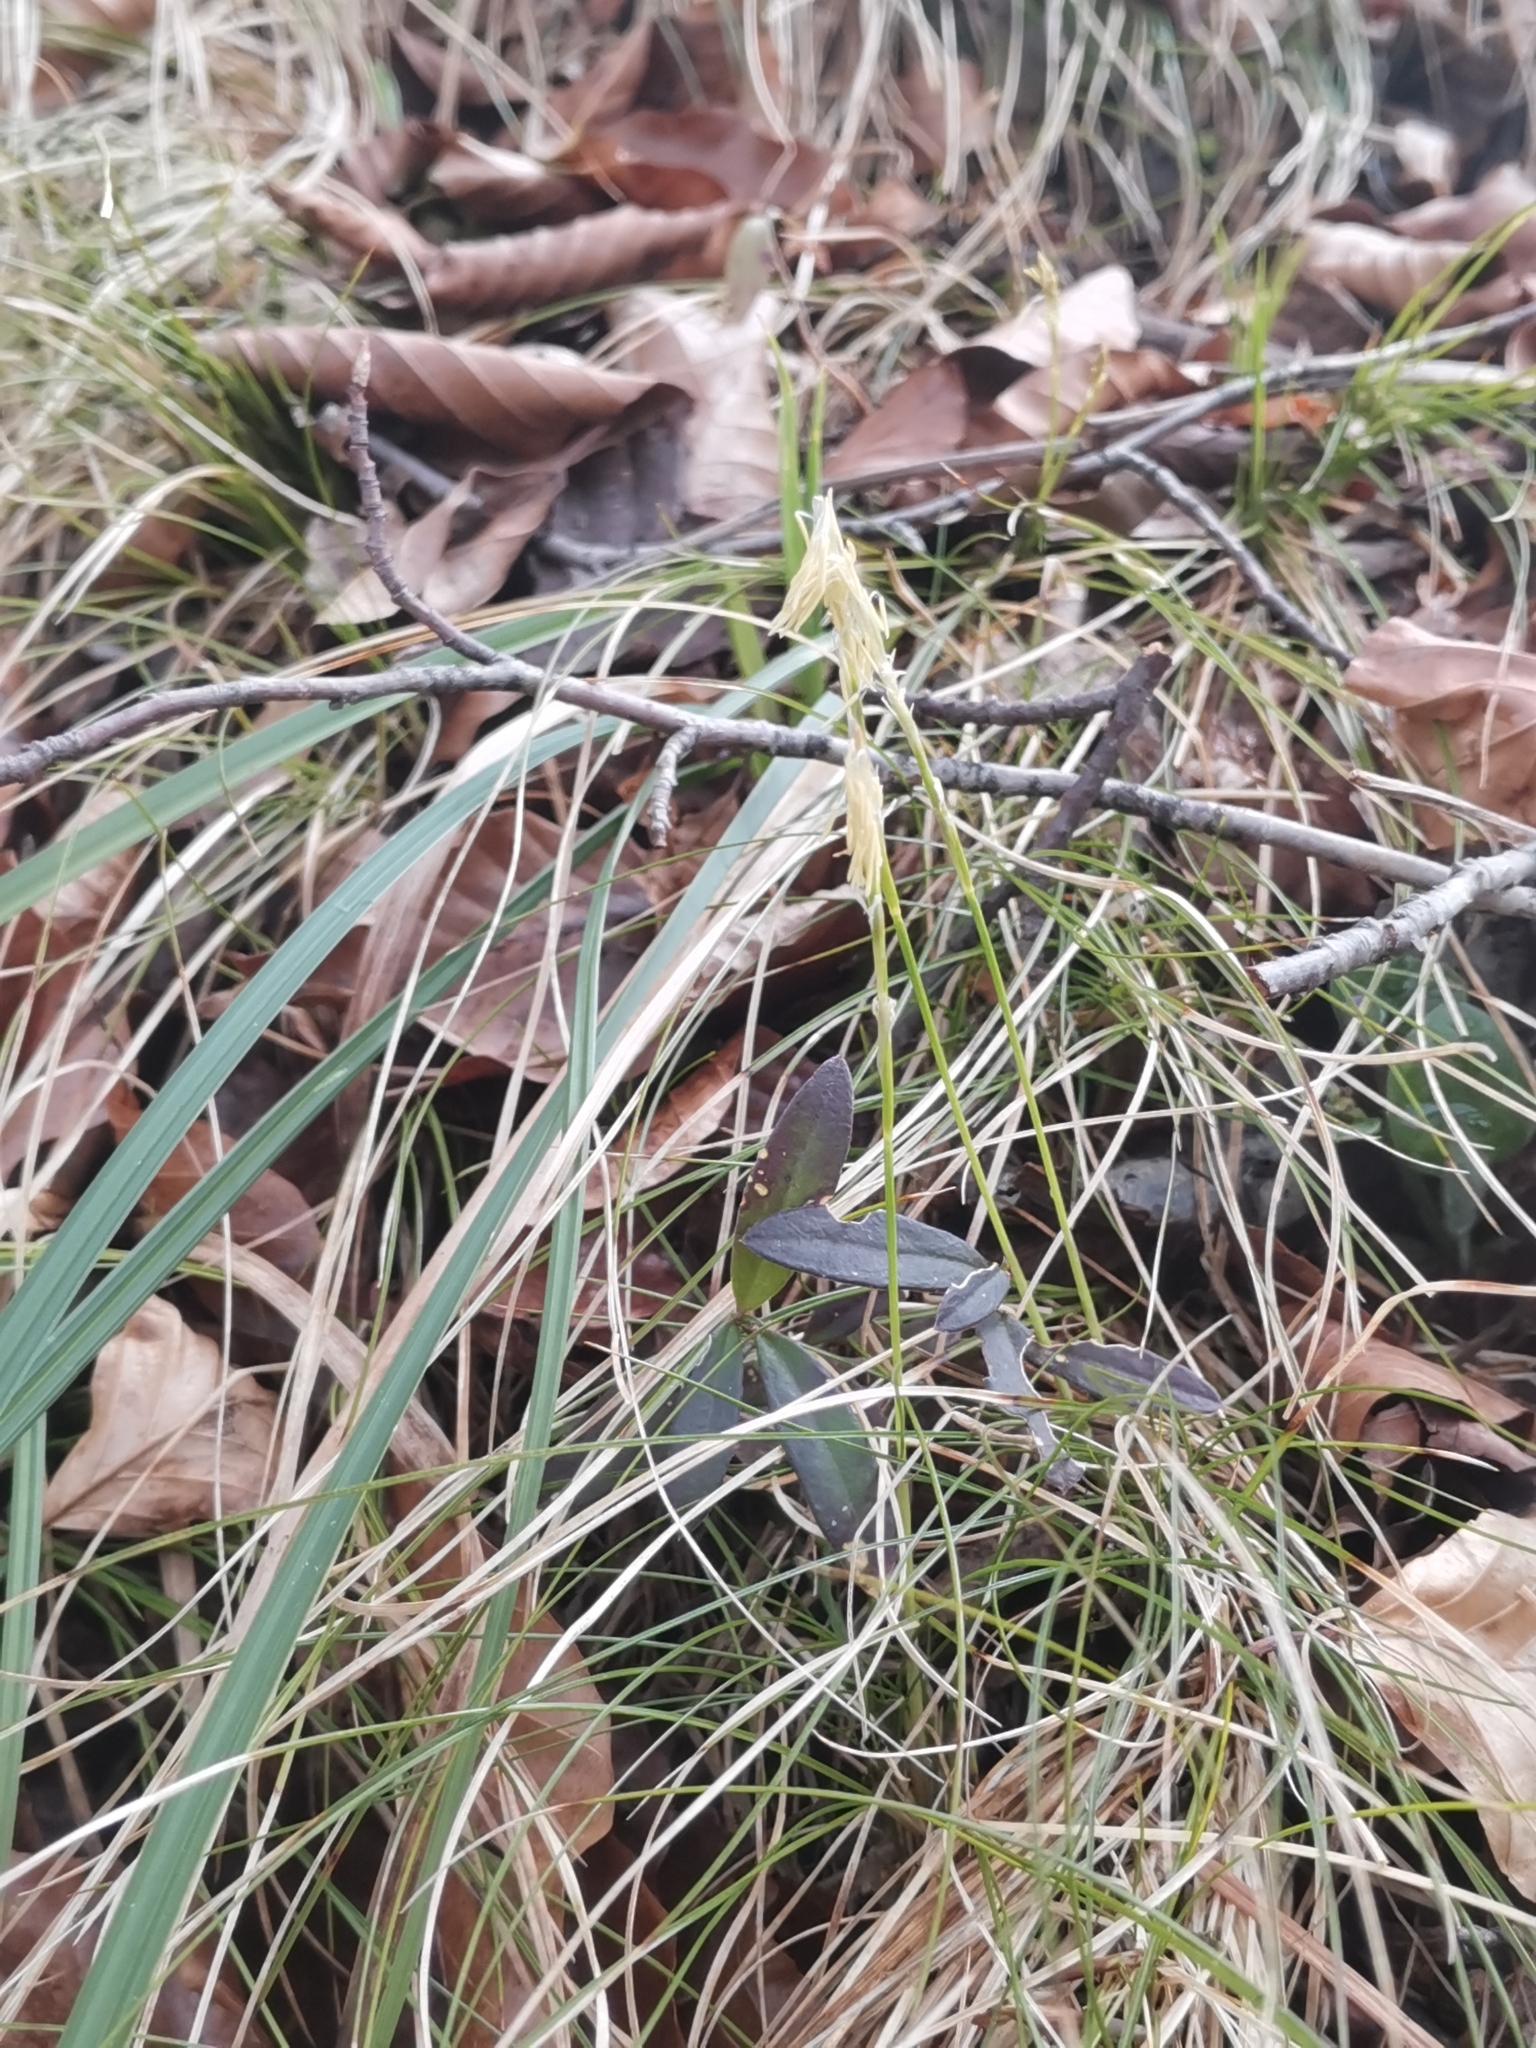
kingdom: Plantae
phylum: Tracheophyta
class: Liliopsida
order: Poales
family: Cyperaceae
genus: Carex
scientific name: Carex alba
